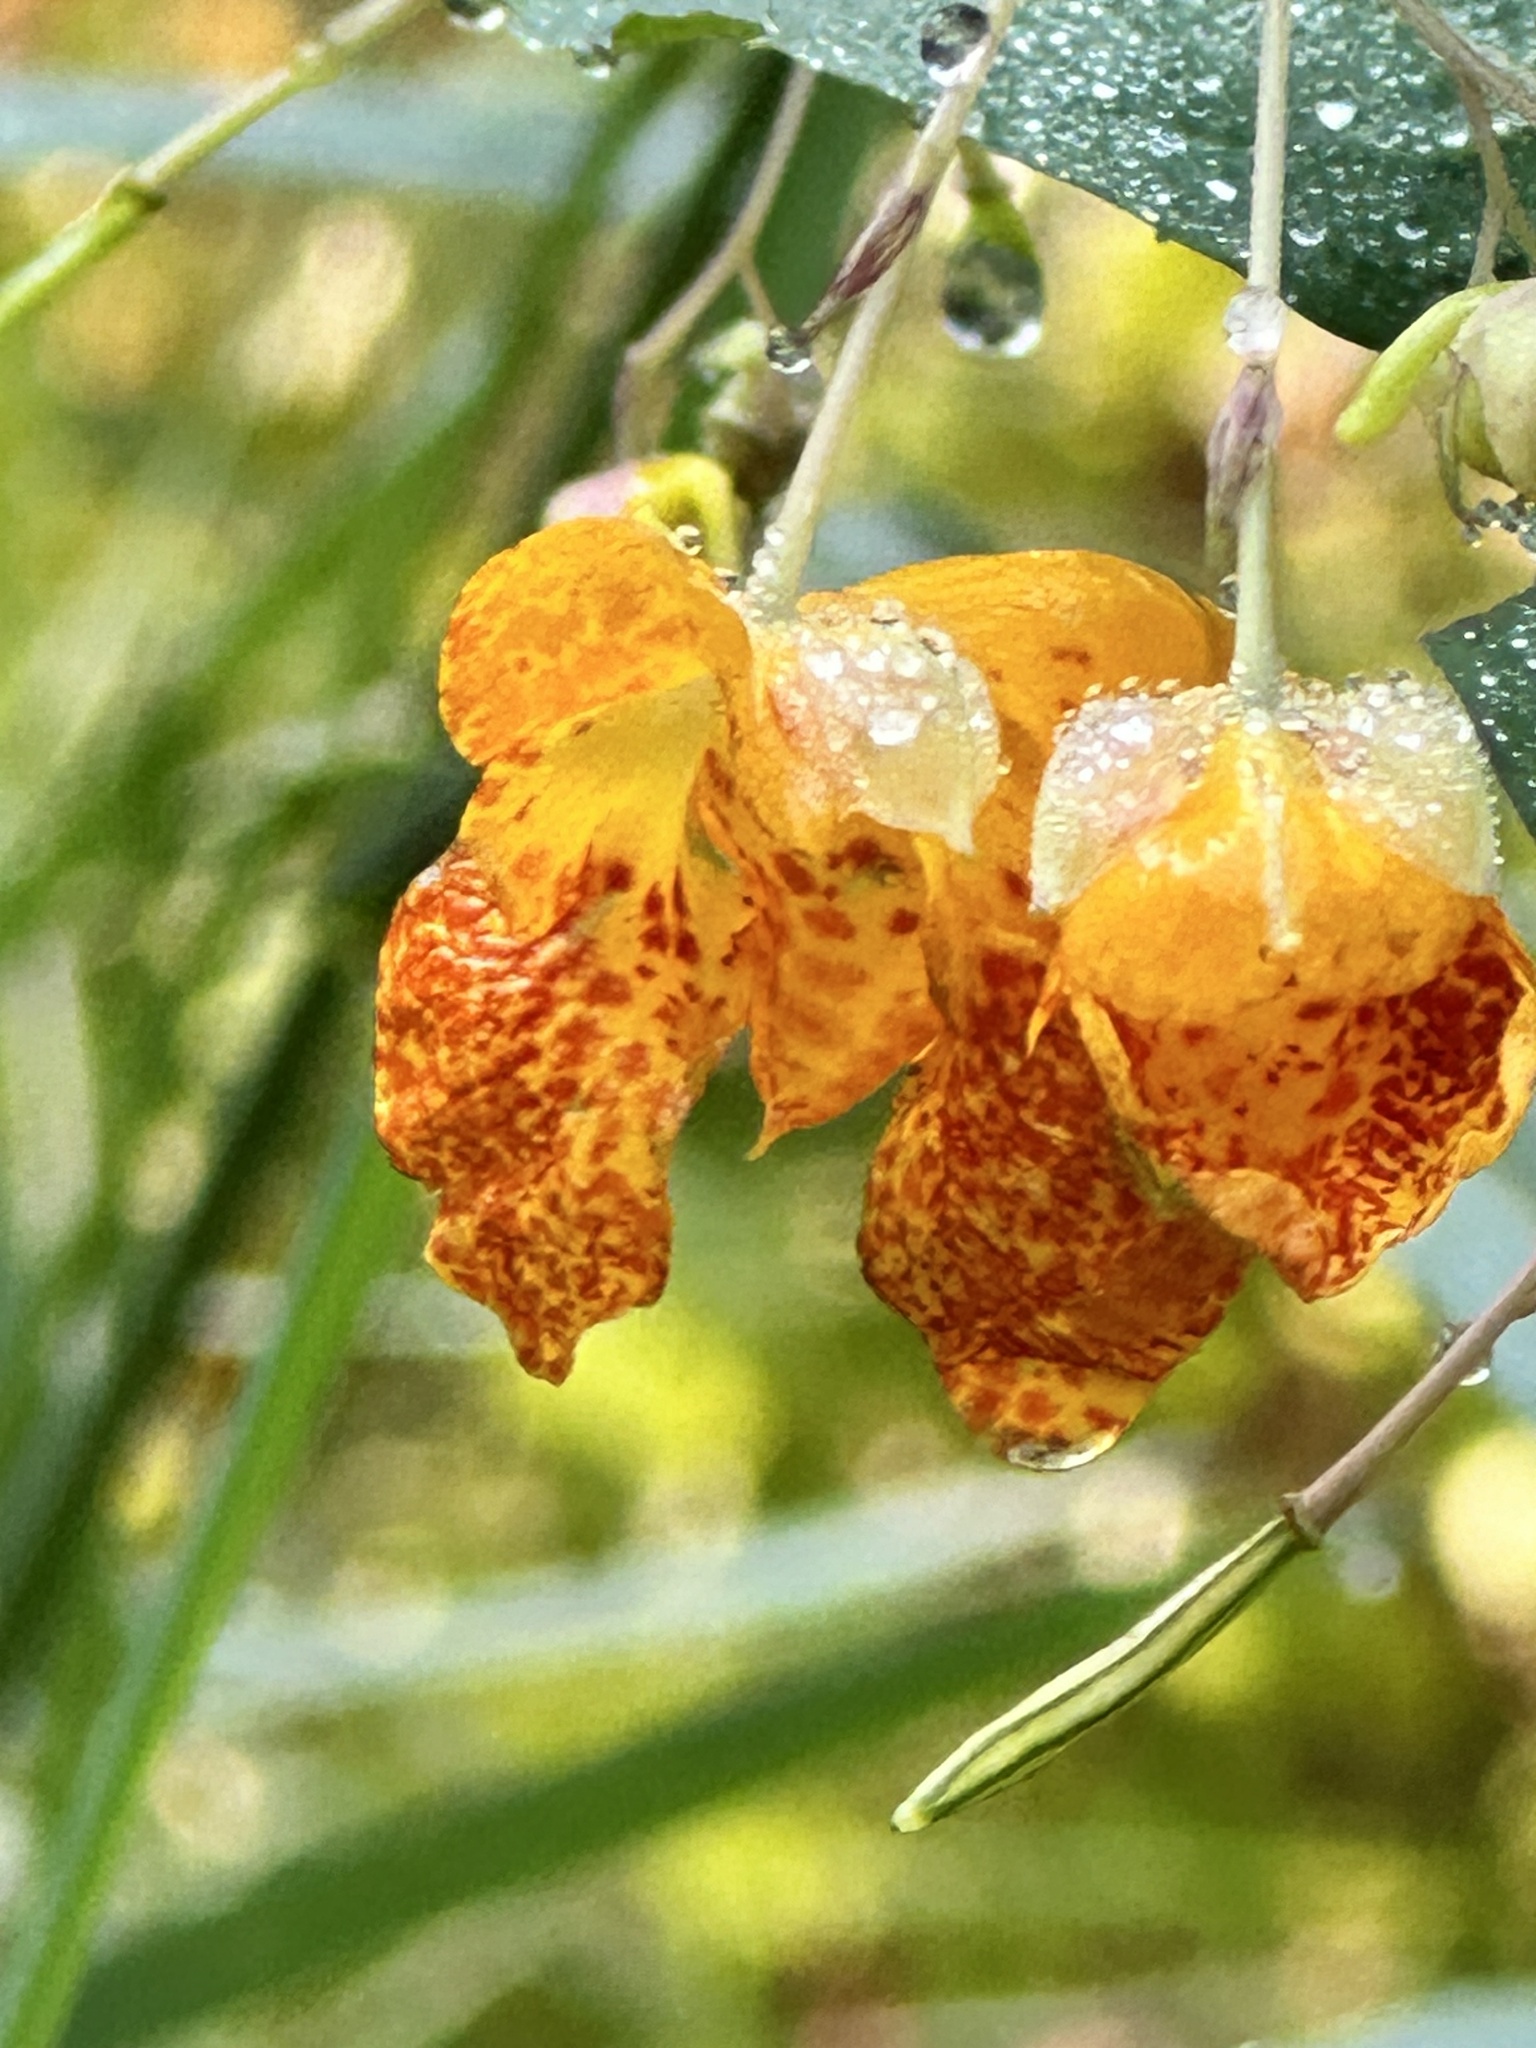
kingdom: Plantae
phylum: Tracheophyta
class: Magnoliopsida
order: Ericales
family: Balsaminaceae
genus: Impatiens
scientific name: Impatiens capensis
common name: Orange balsam
